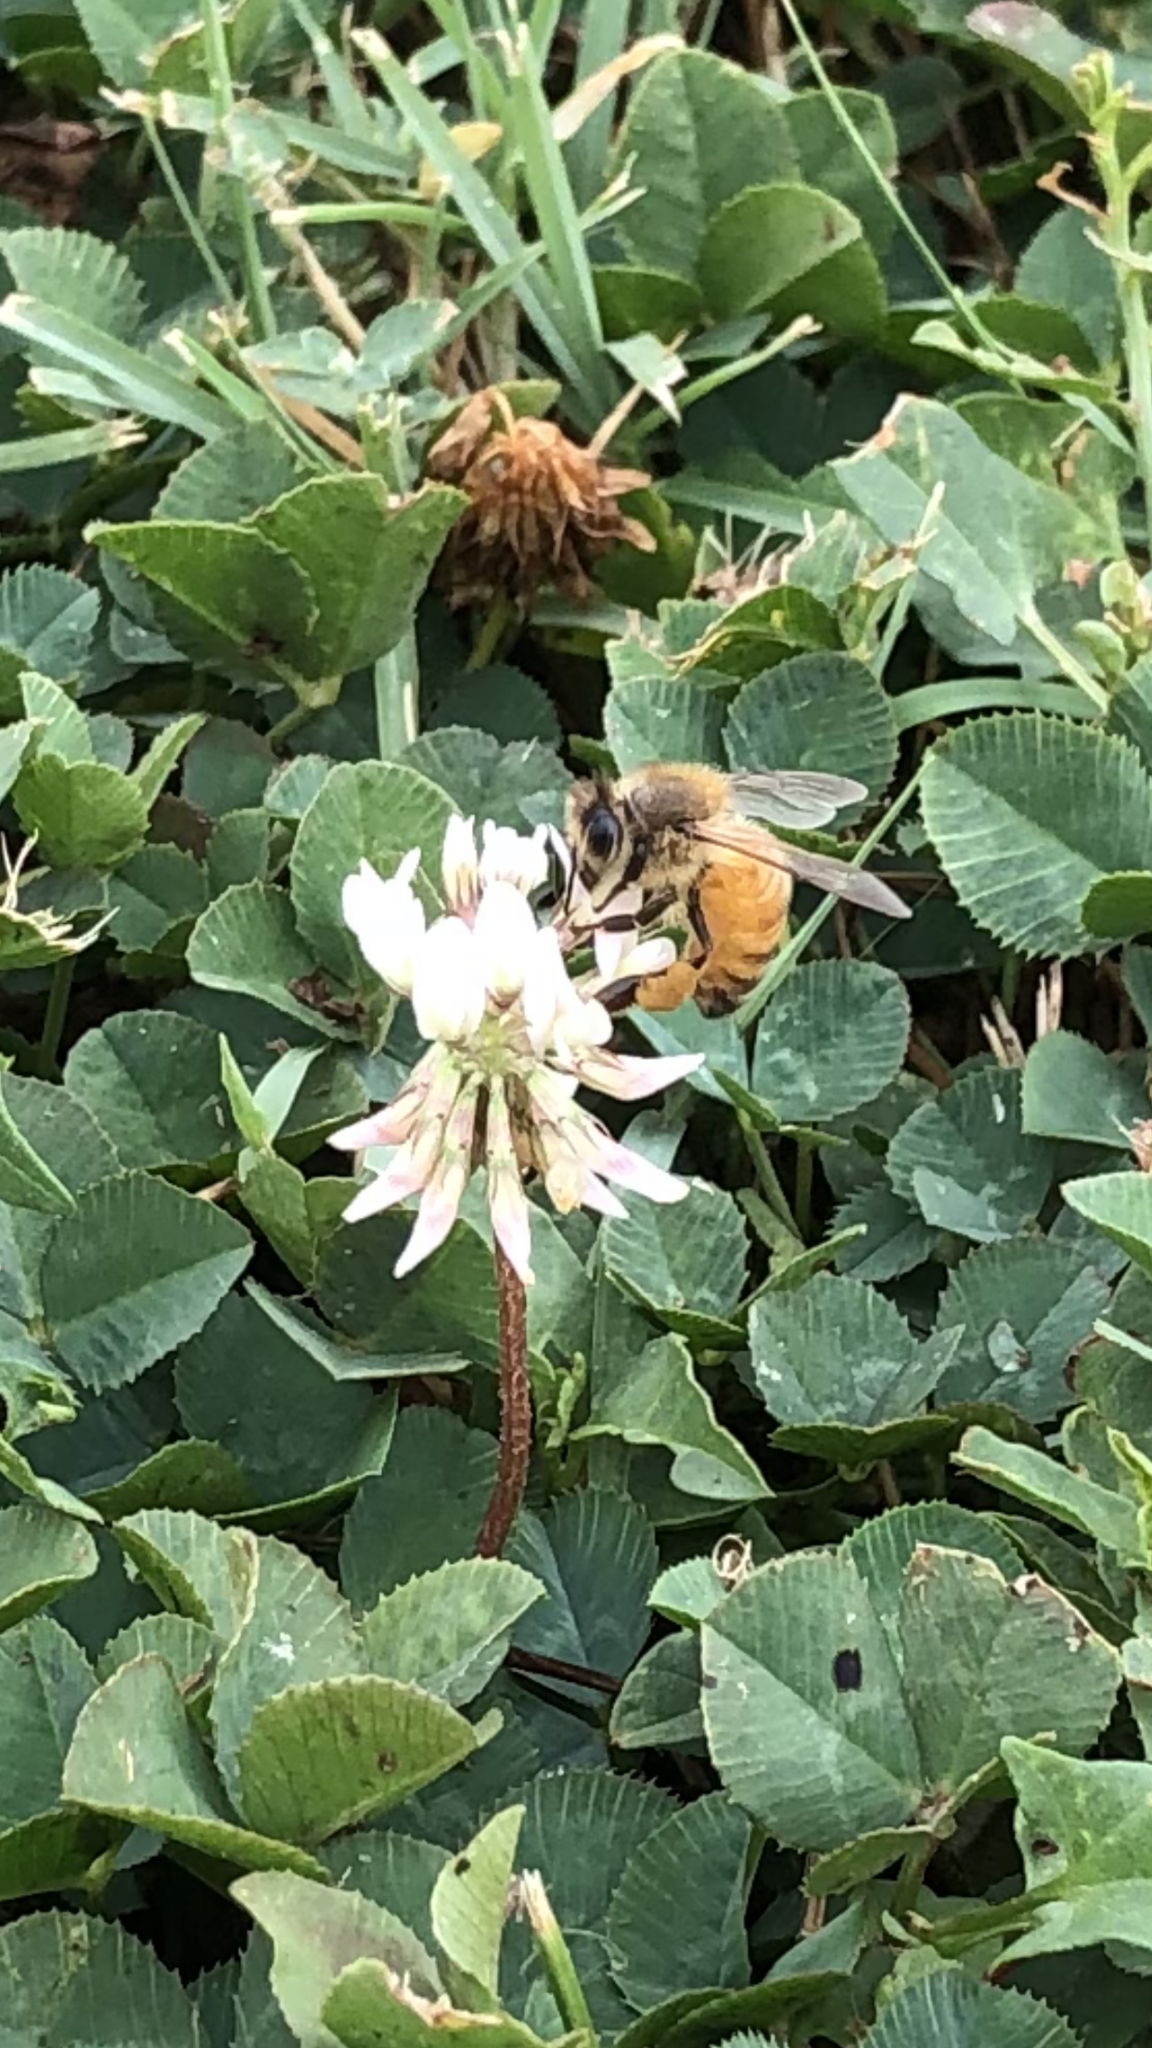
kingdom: Animalia
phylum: Arthropoda
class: Insecta
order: Hymenoptera
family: Apidae
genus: Apis
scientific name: Apis mellifera
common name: Honey bee
